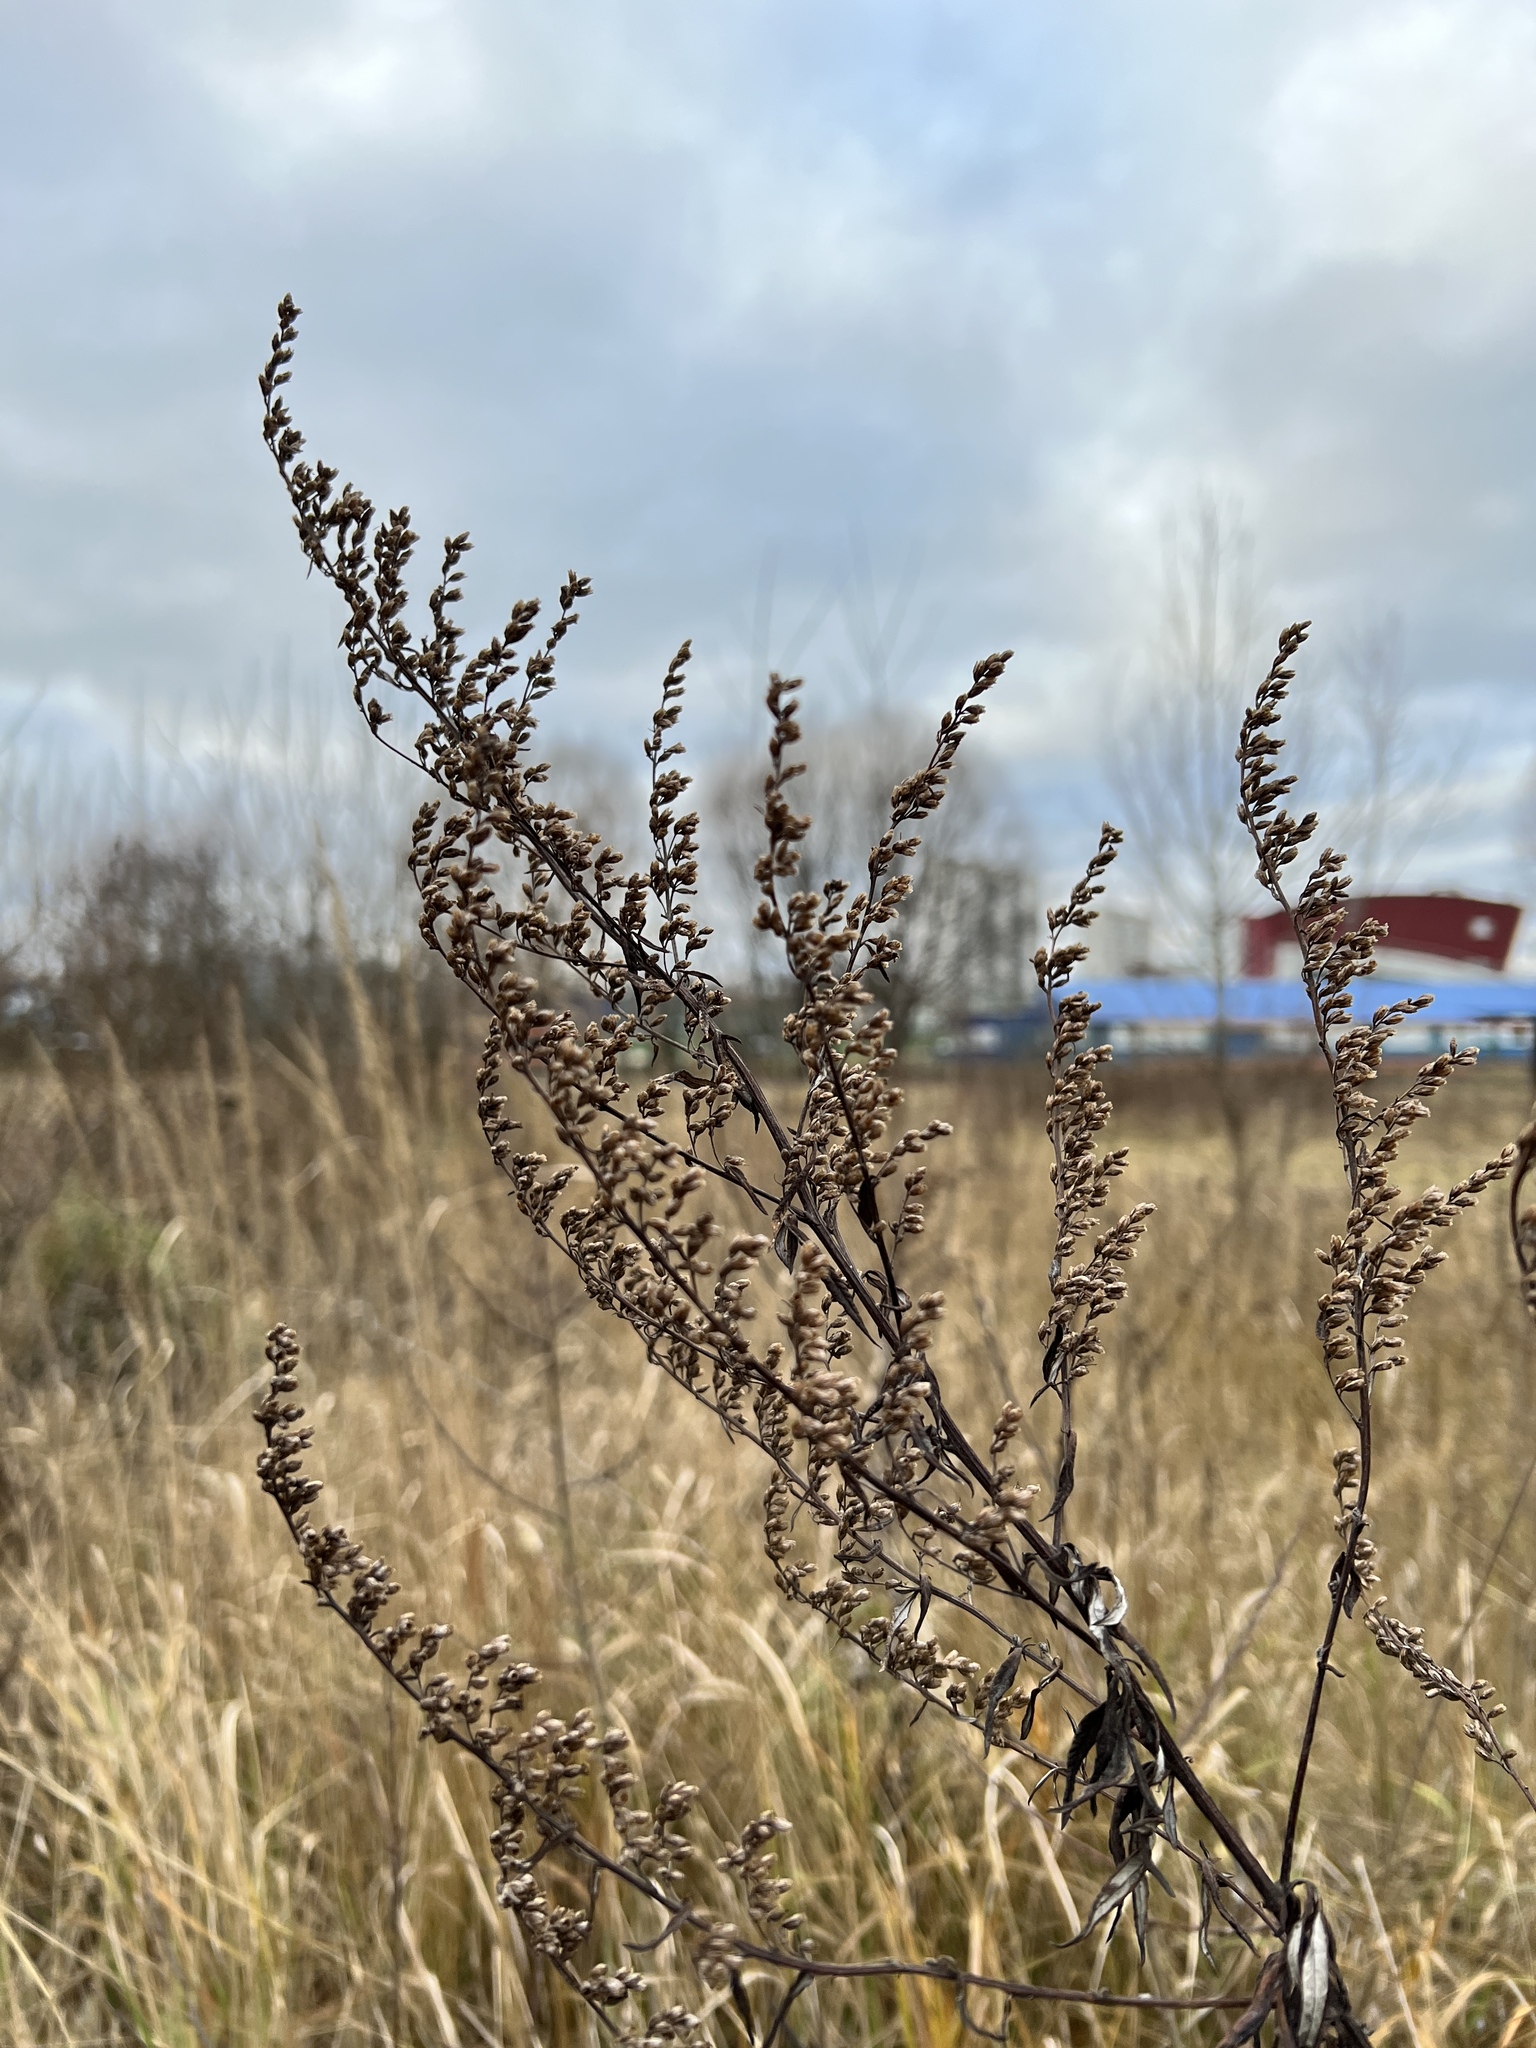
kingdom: Plantae
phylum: Tracheophyta
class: Magnoliopsida
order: Asterales
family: Asteraceae
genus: Artemisia
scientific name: Artemisia vulgaris
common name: Mugwort
